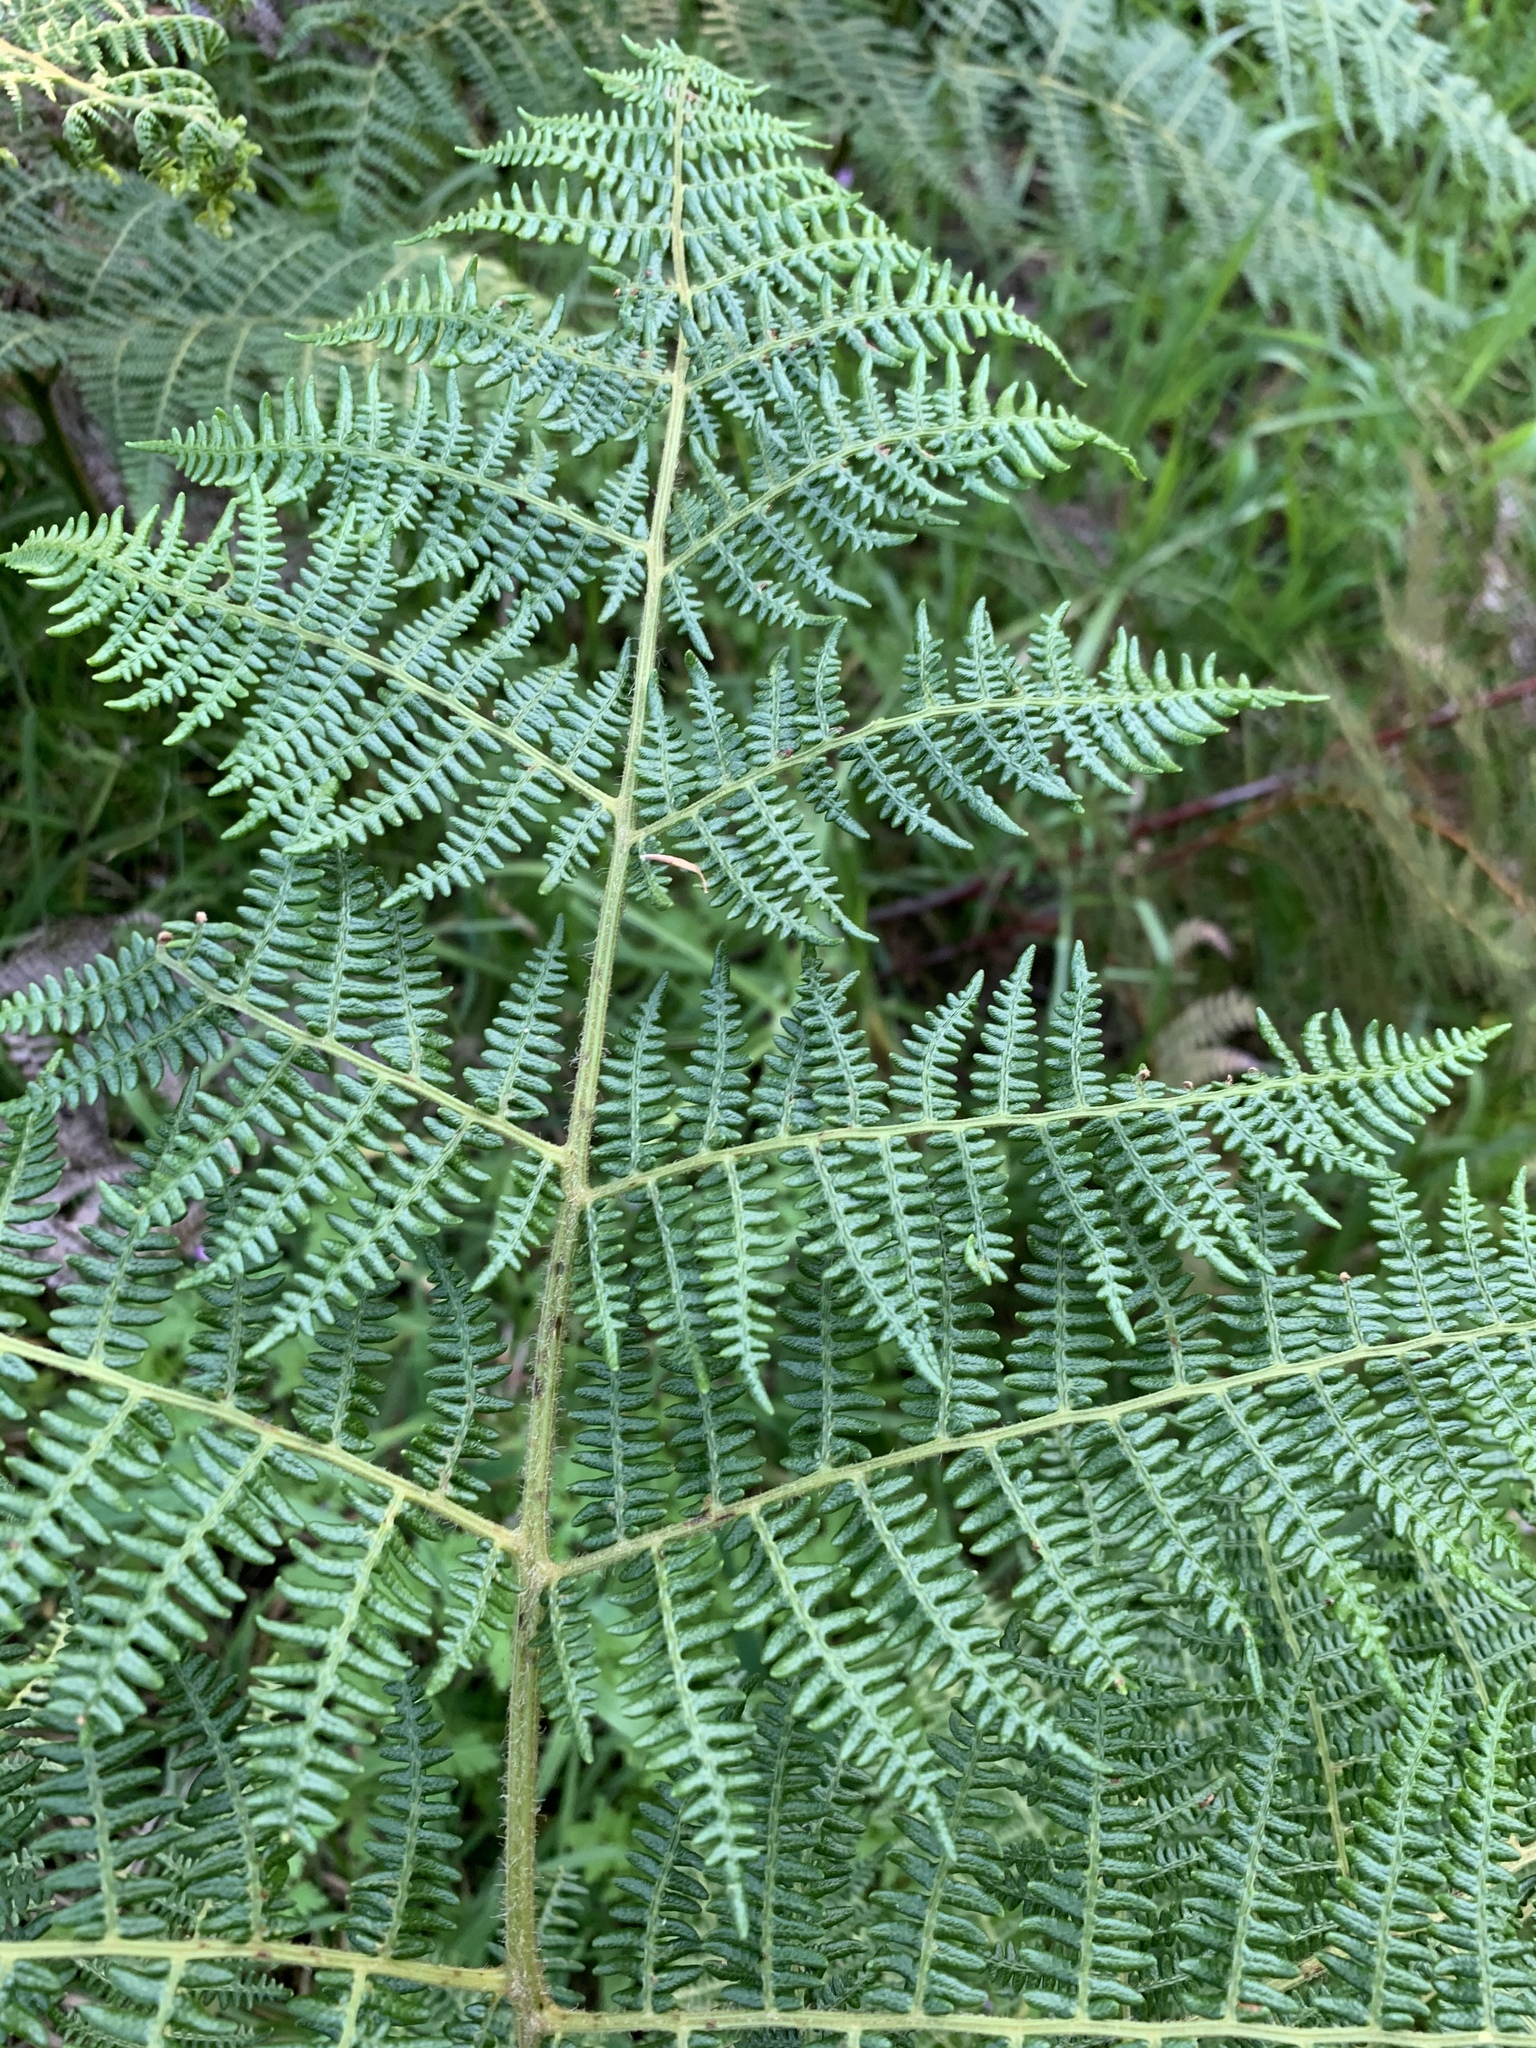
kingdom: Plantae
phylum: Tracheophyta
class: Polypodiopsida
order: Polypodiales
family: Dennstaedtiaceae
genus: Pteridium
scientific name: Pteridium aquilinum
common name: Bracken
